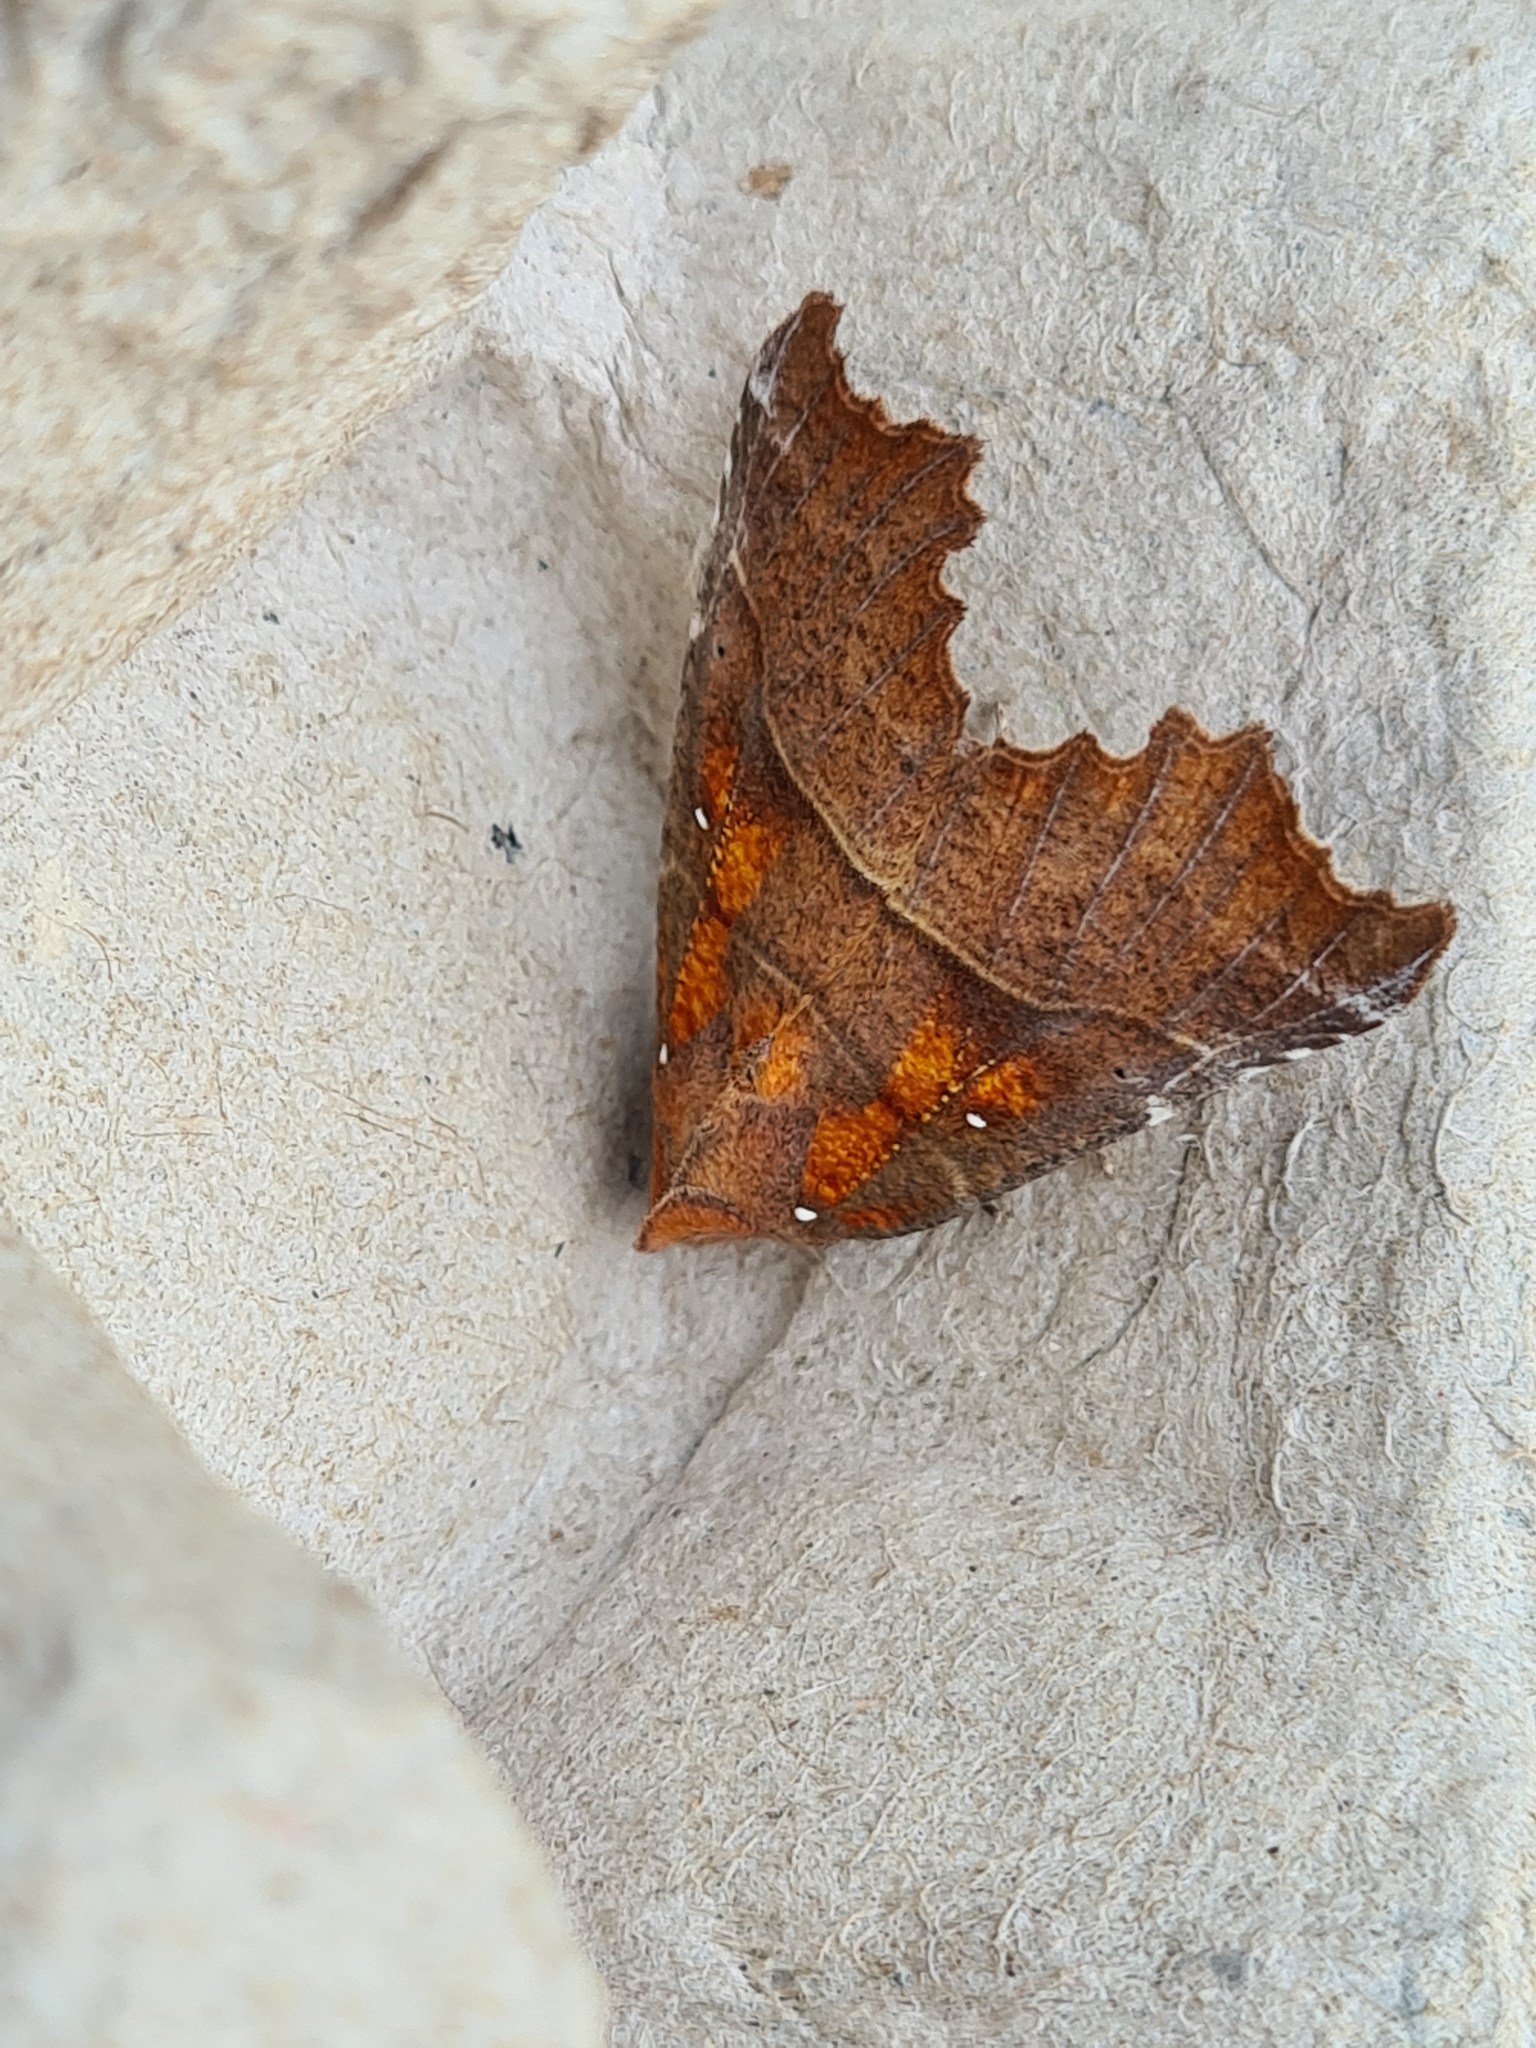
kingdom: Animalia
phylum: Arthropoda
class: Insecta
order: Lepidoptera
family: Erebidae
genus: Scoliopteryx
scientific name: Scoliopteryx libatrix
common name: Herald
